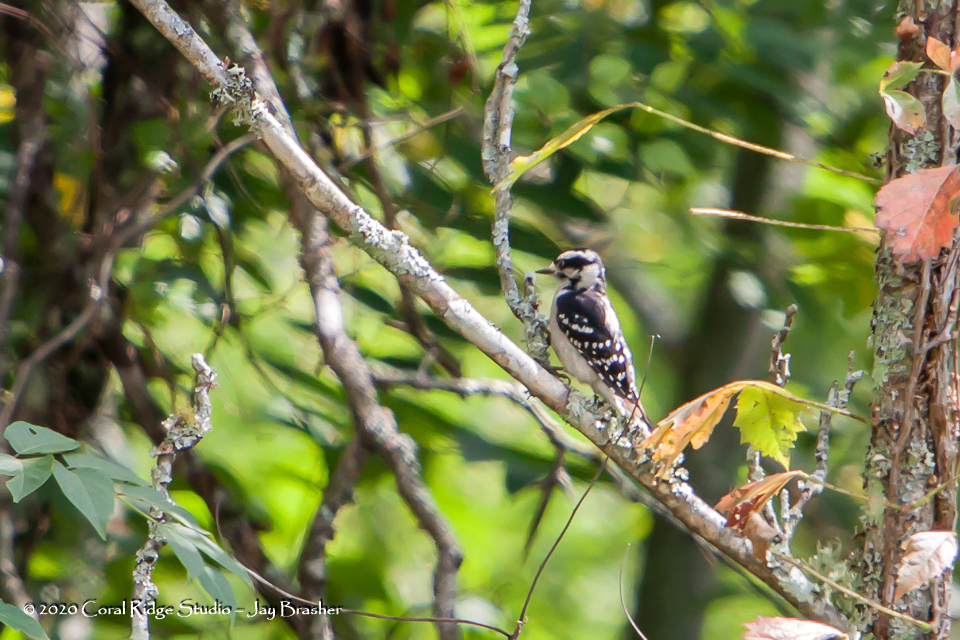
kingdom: Animalia
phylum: Chordata
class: Aves
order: Piciformes
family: Picidae
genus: Dryobates
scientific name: Dryobates pubescens
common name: Downy woodpecker
